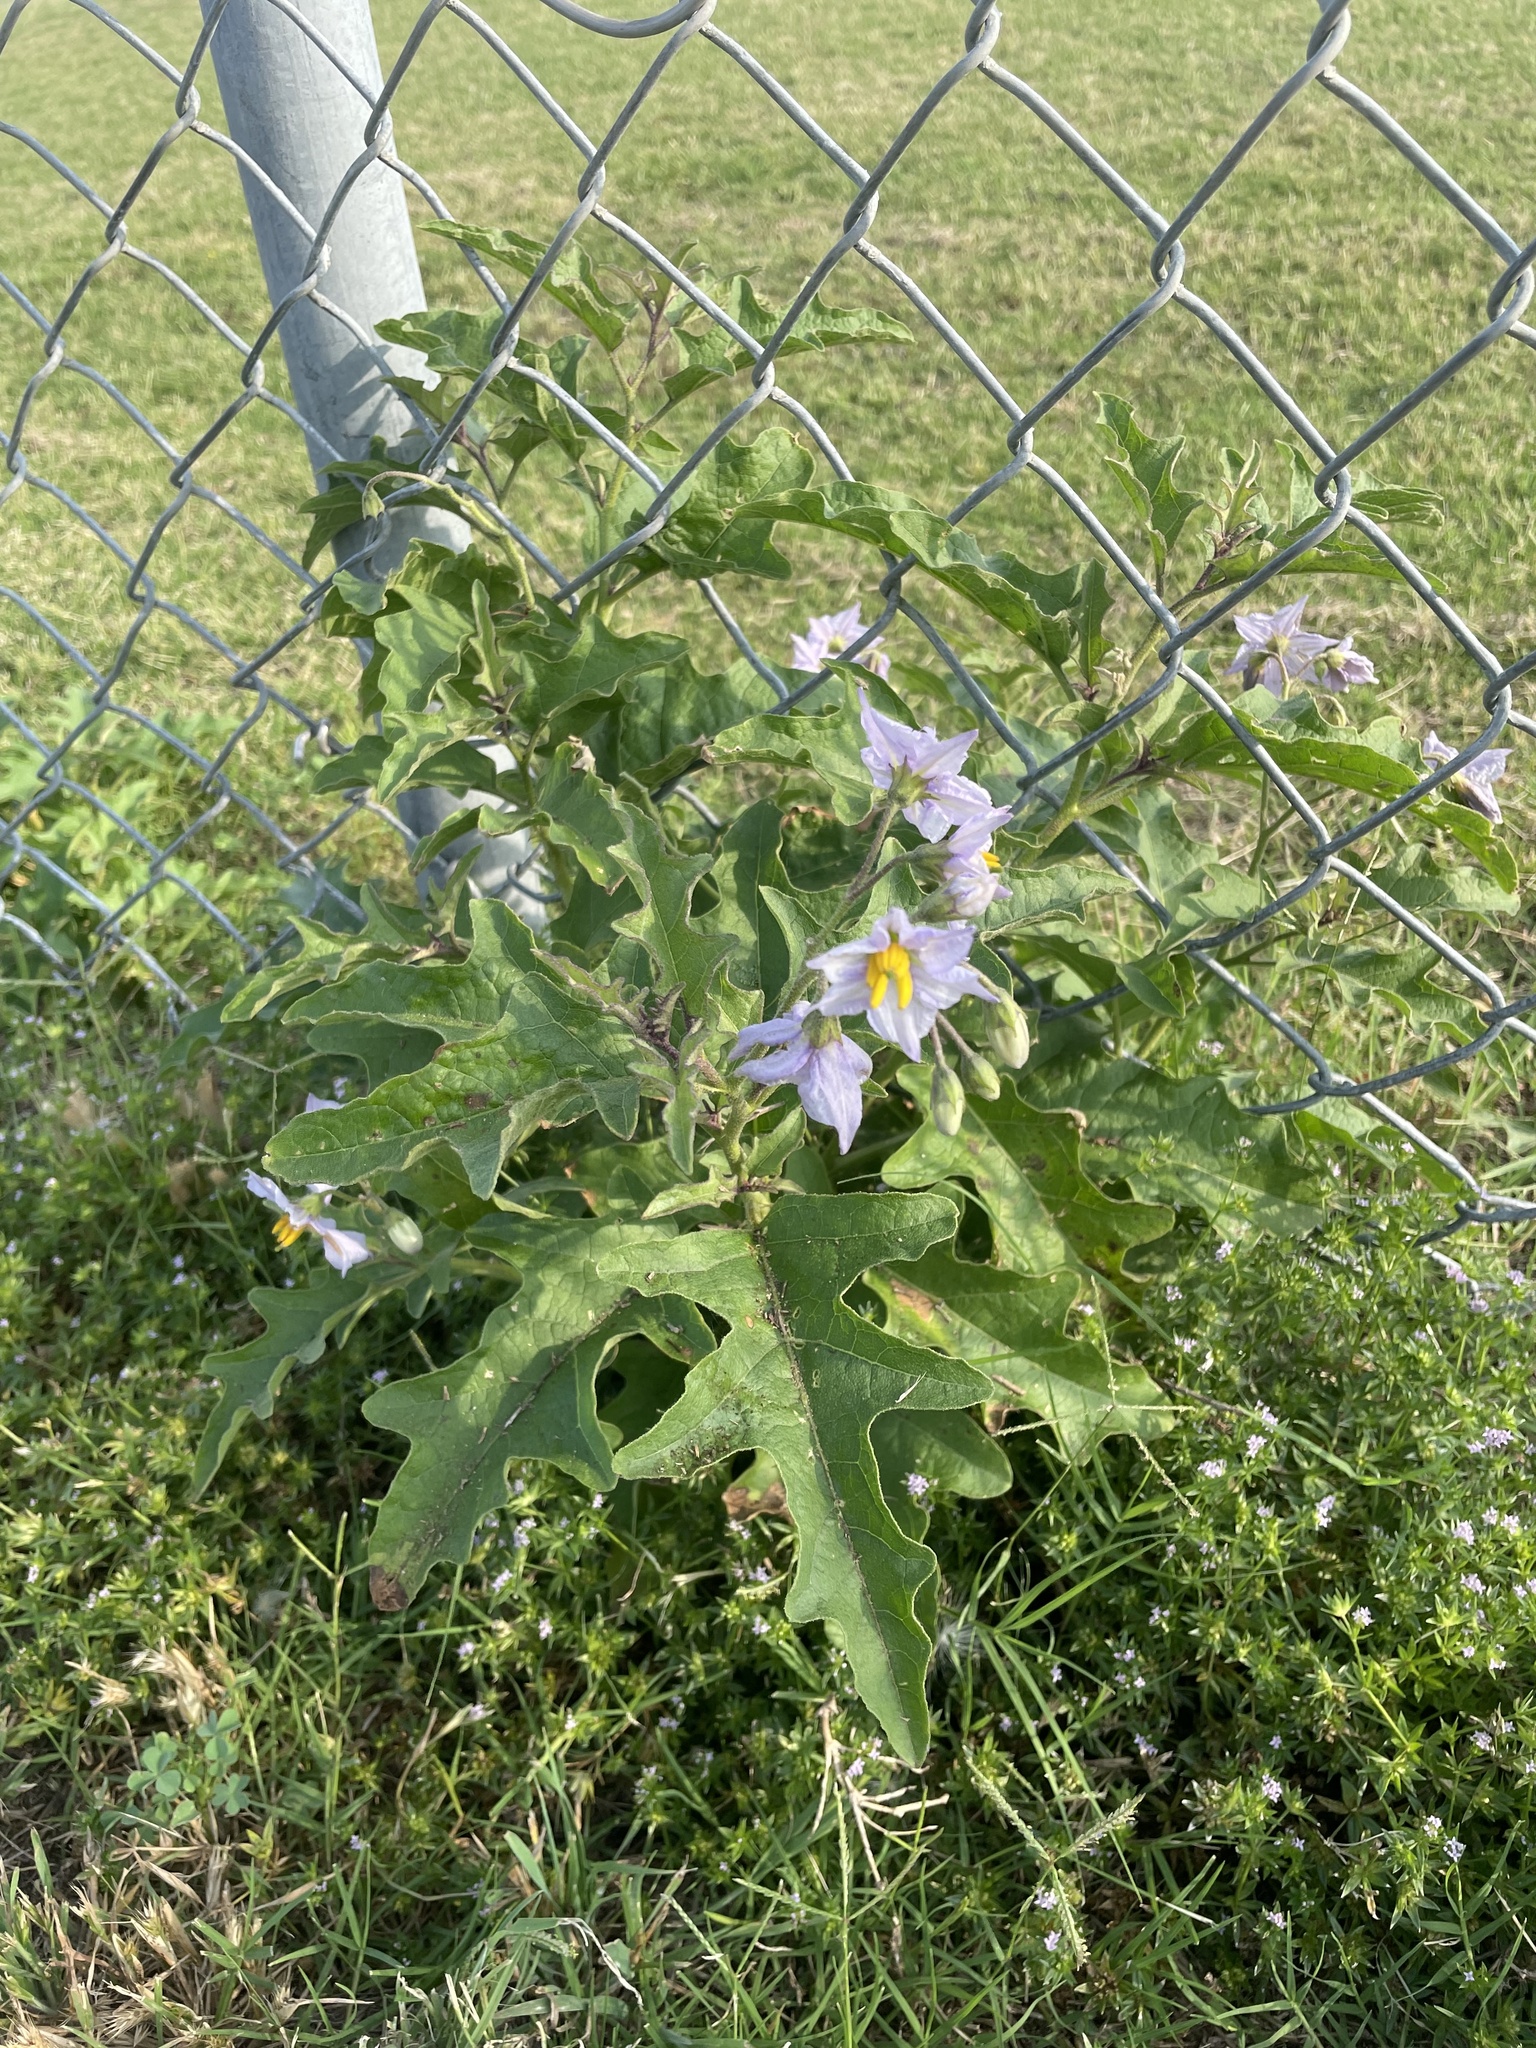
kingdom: Plantae
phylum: Tracheophyta
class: Magnoliopsida
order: Solanales
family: Solanaceae
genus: Solanum
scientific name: Solanum dimidiatum
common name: Carolina horse-nettle
